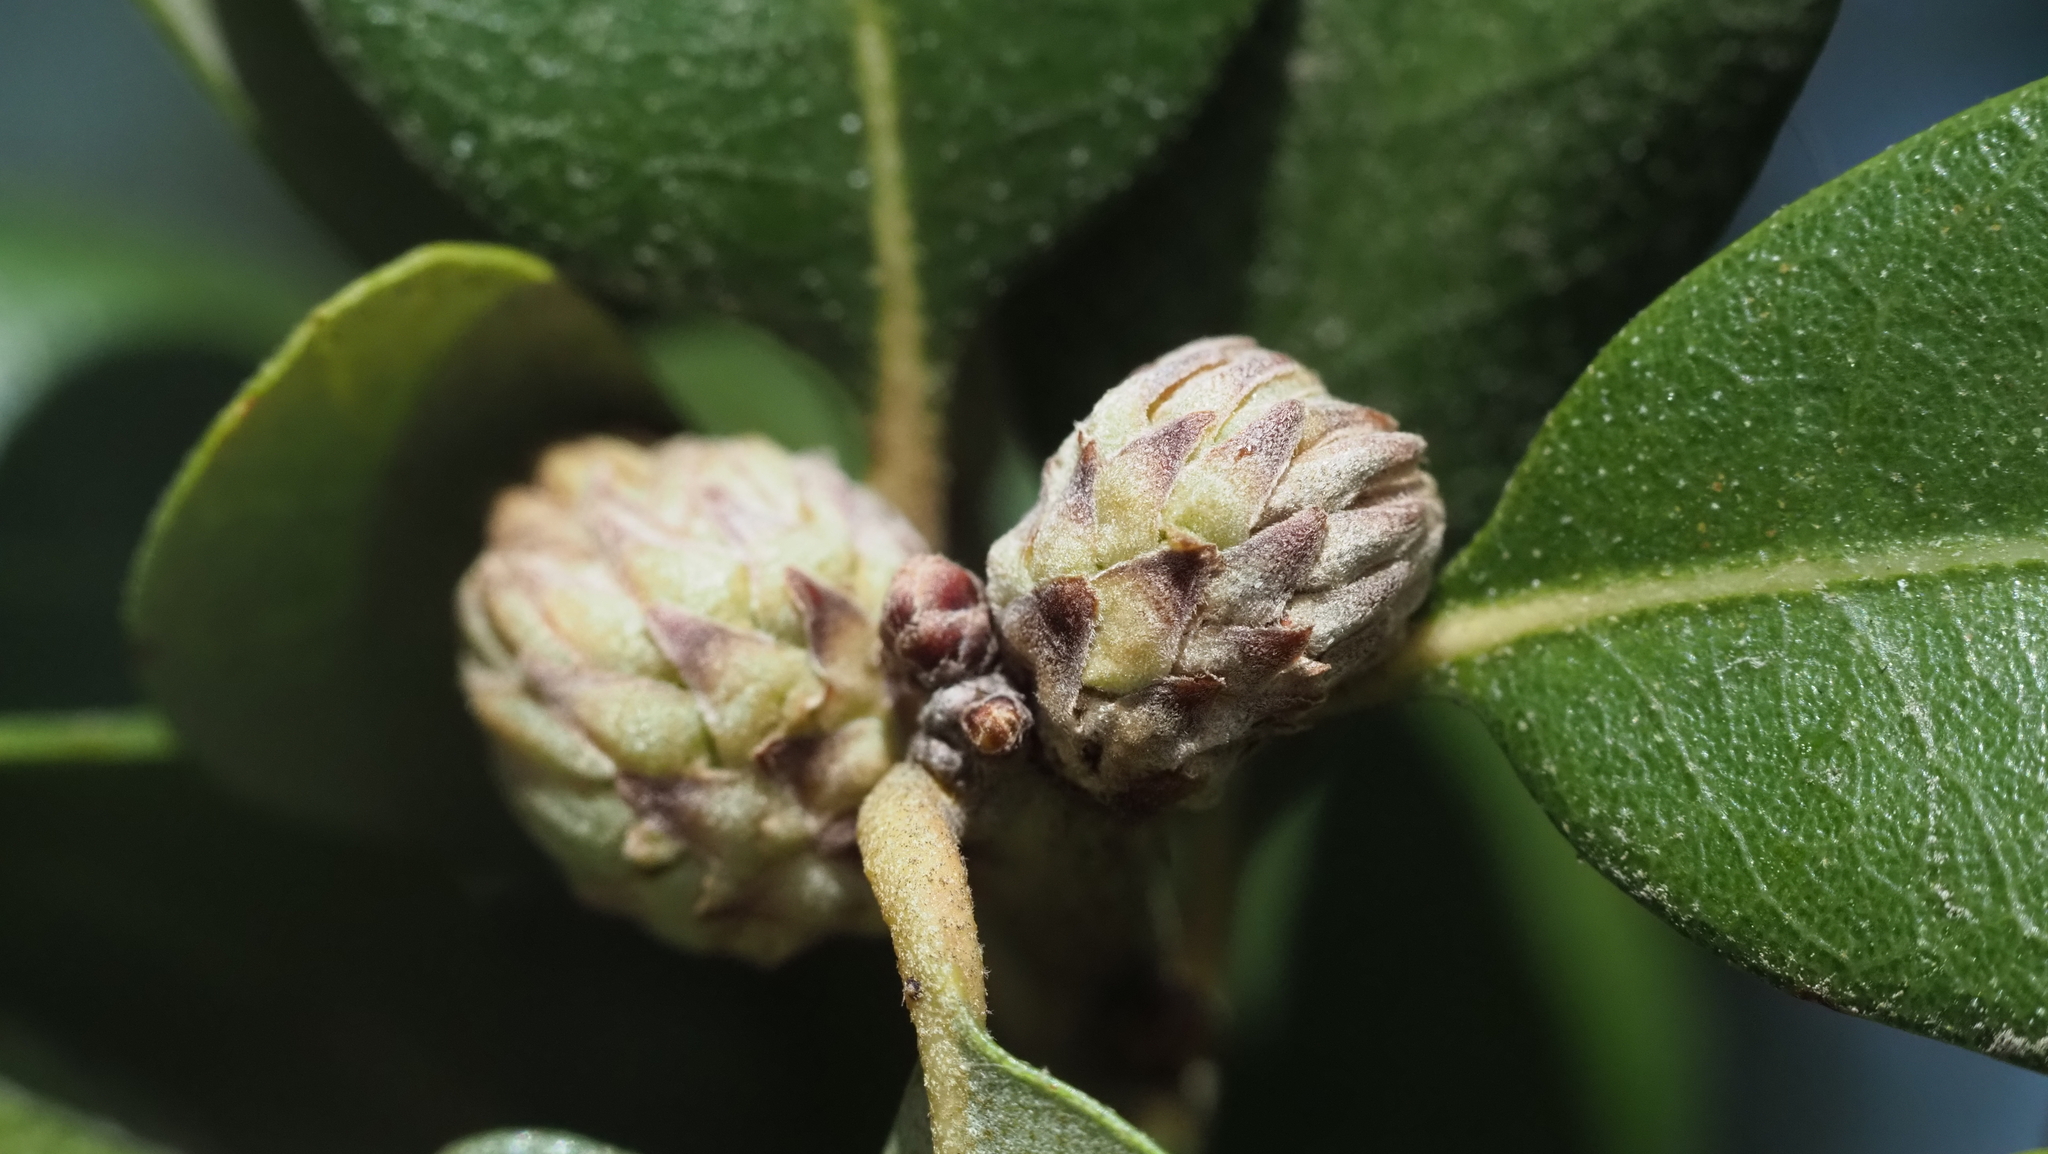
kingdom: Animalia
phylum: Arthropoda
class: Insecta
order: Hymenoptera
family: Cynipidae
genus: Andricus
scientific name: Andricus quercusfoliatus
